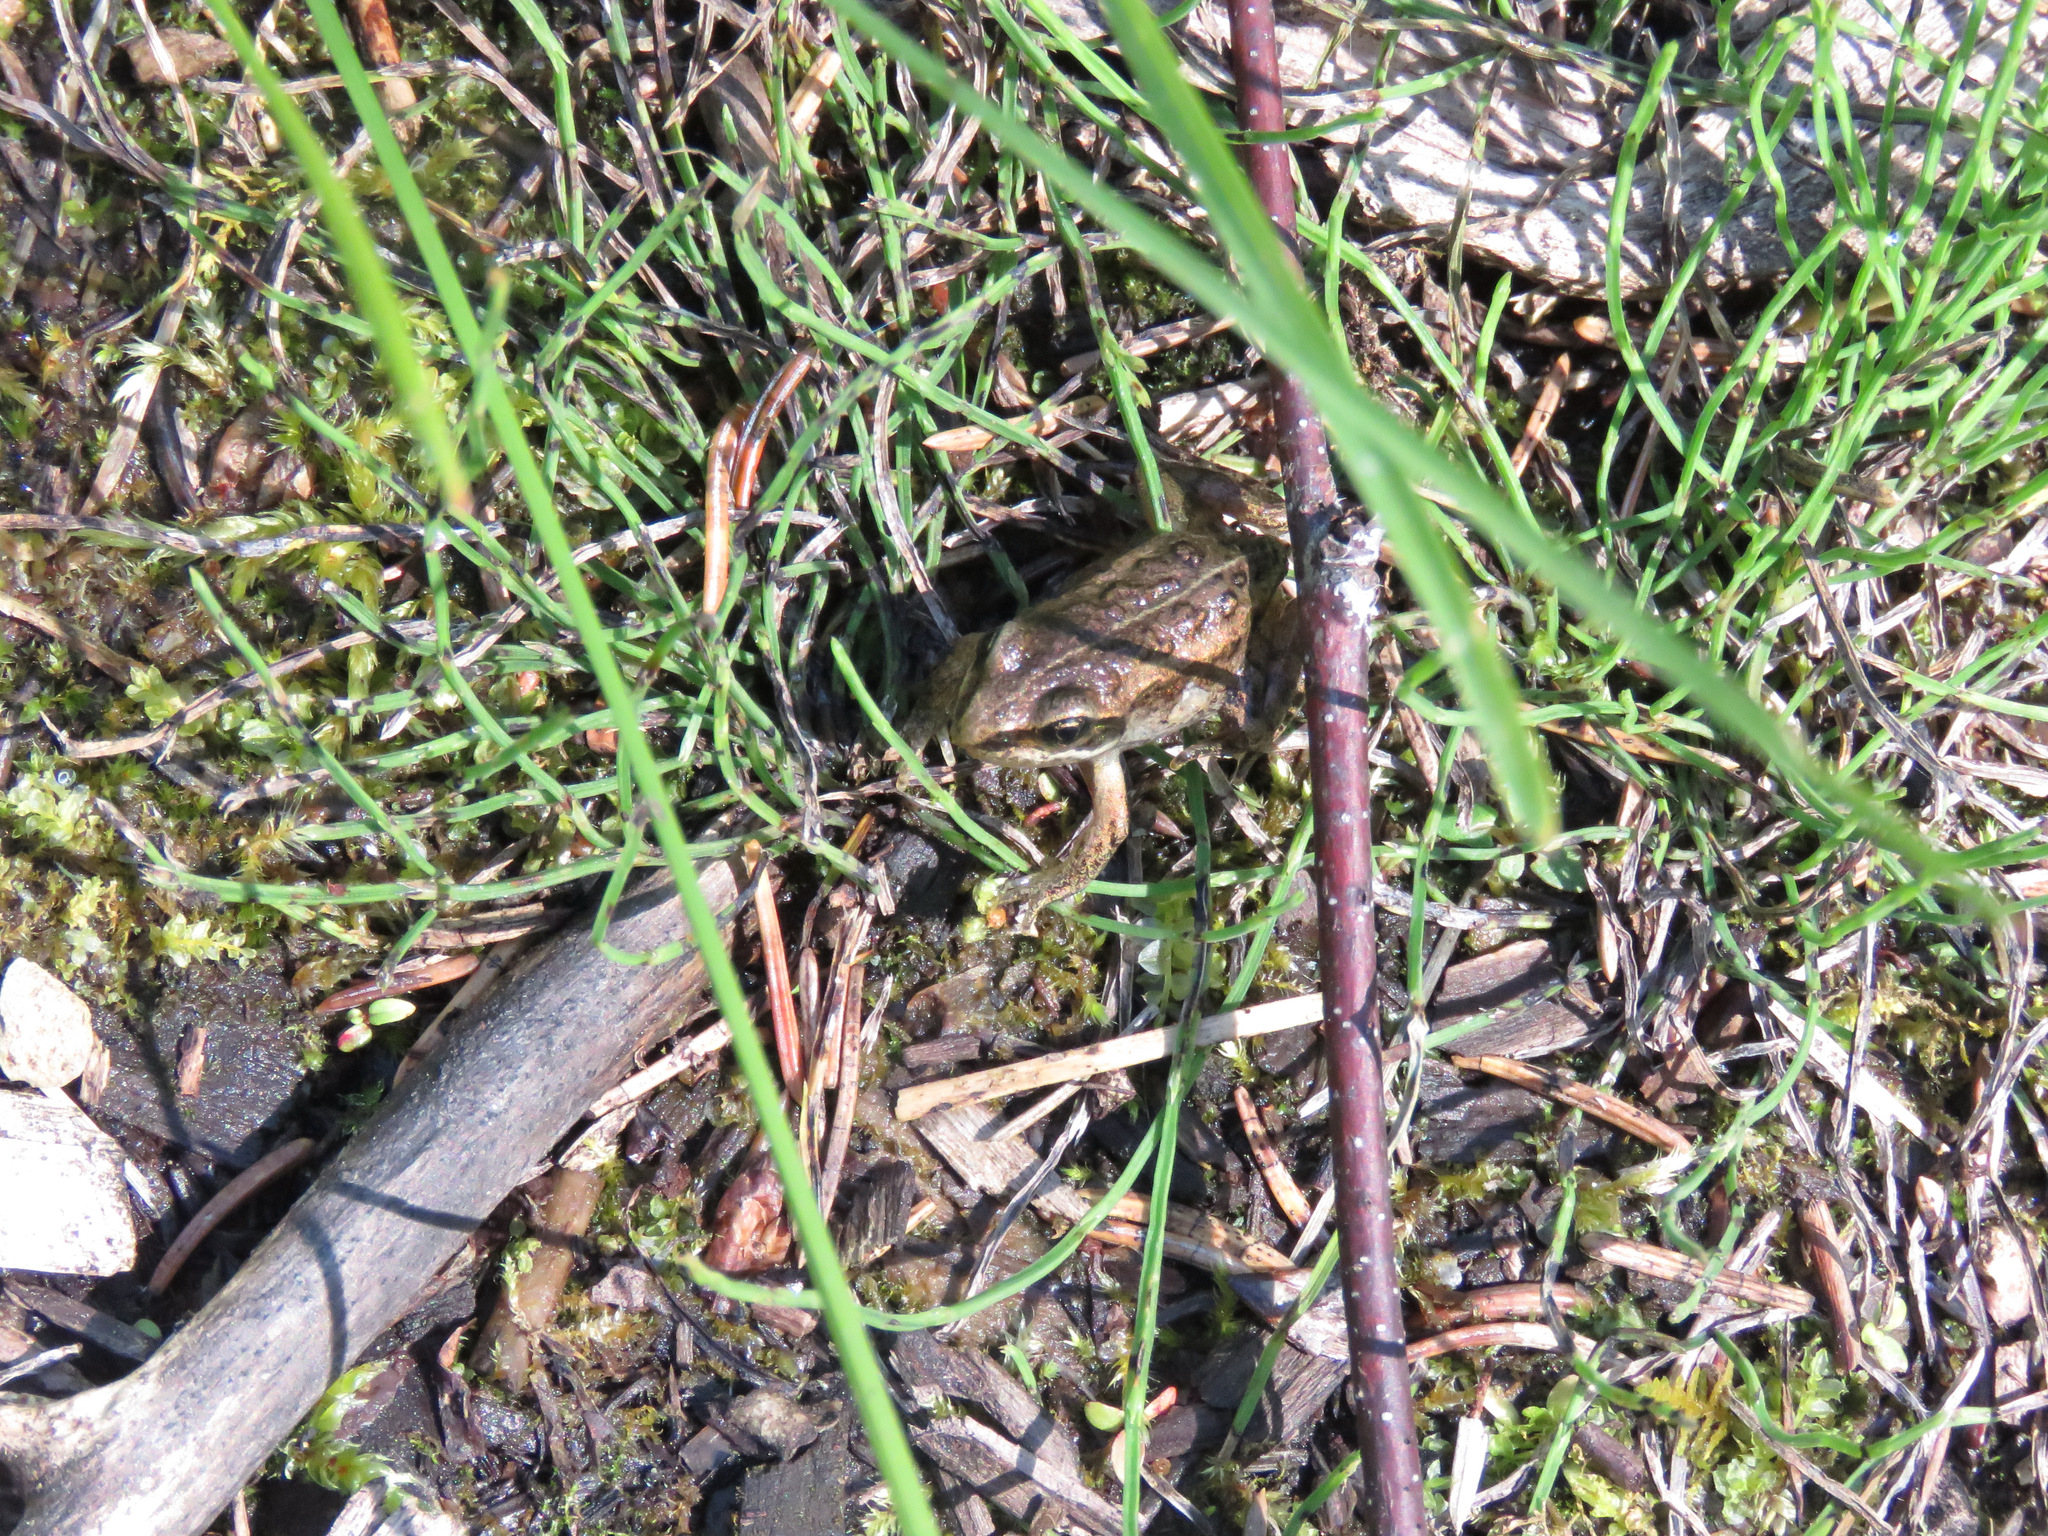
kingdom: Animalia
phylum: Chordata
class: Amphibia
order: Anura
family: Ranidae
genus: Lithobates
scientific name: Lithobates sylvaticus
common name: Wood frog
